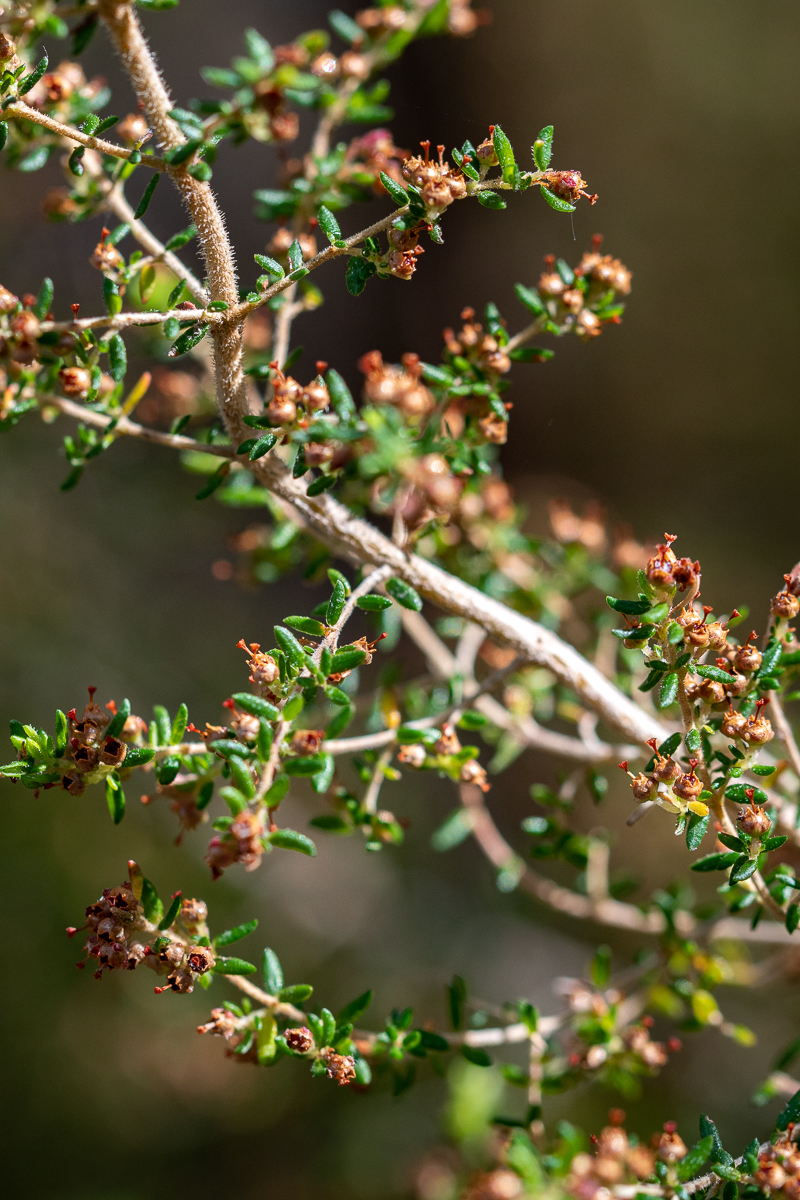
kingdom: Plantae
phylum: Tracheophyta
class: Magnoliopsida
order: Ericales
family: Ericaceae
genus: Erica
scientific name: Erica hispidula
